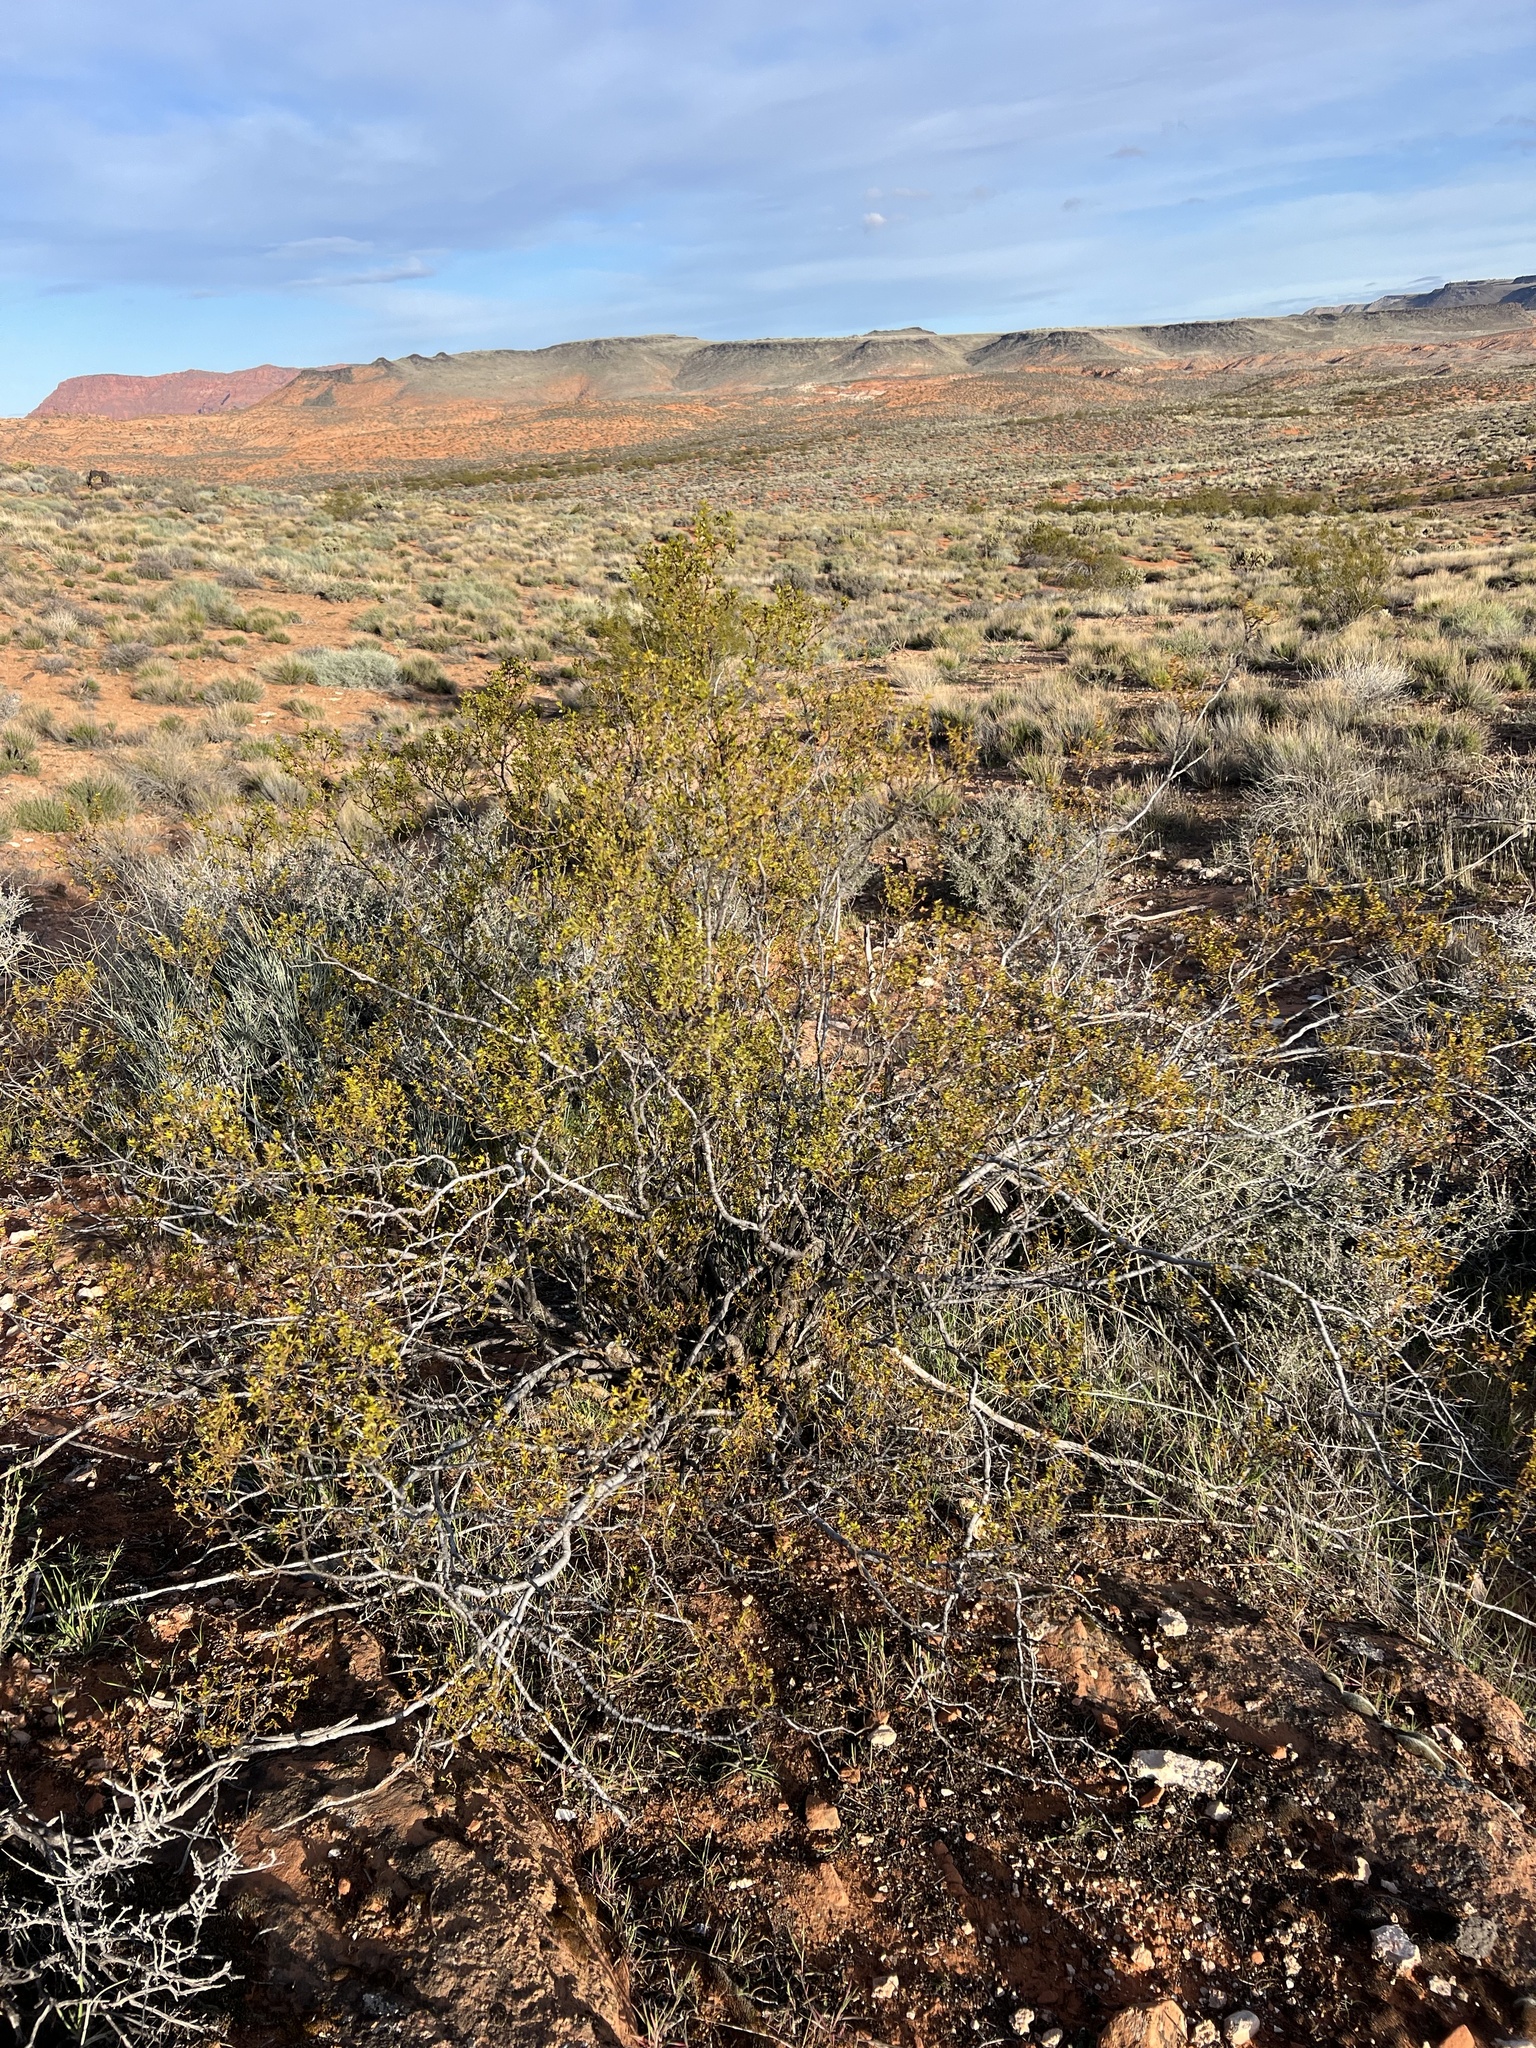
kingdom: Plantae
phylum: Tracheophyta
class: Magnoliopsida
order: Zygophyllales
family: Zygophyllaceae
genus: Larrea
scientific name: Larrea tridentata
